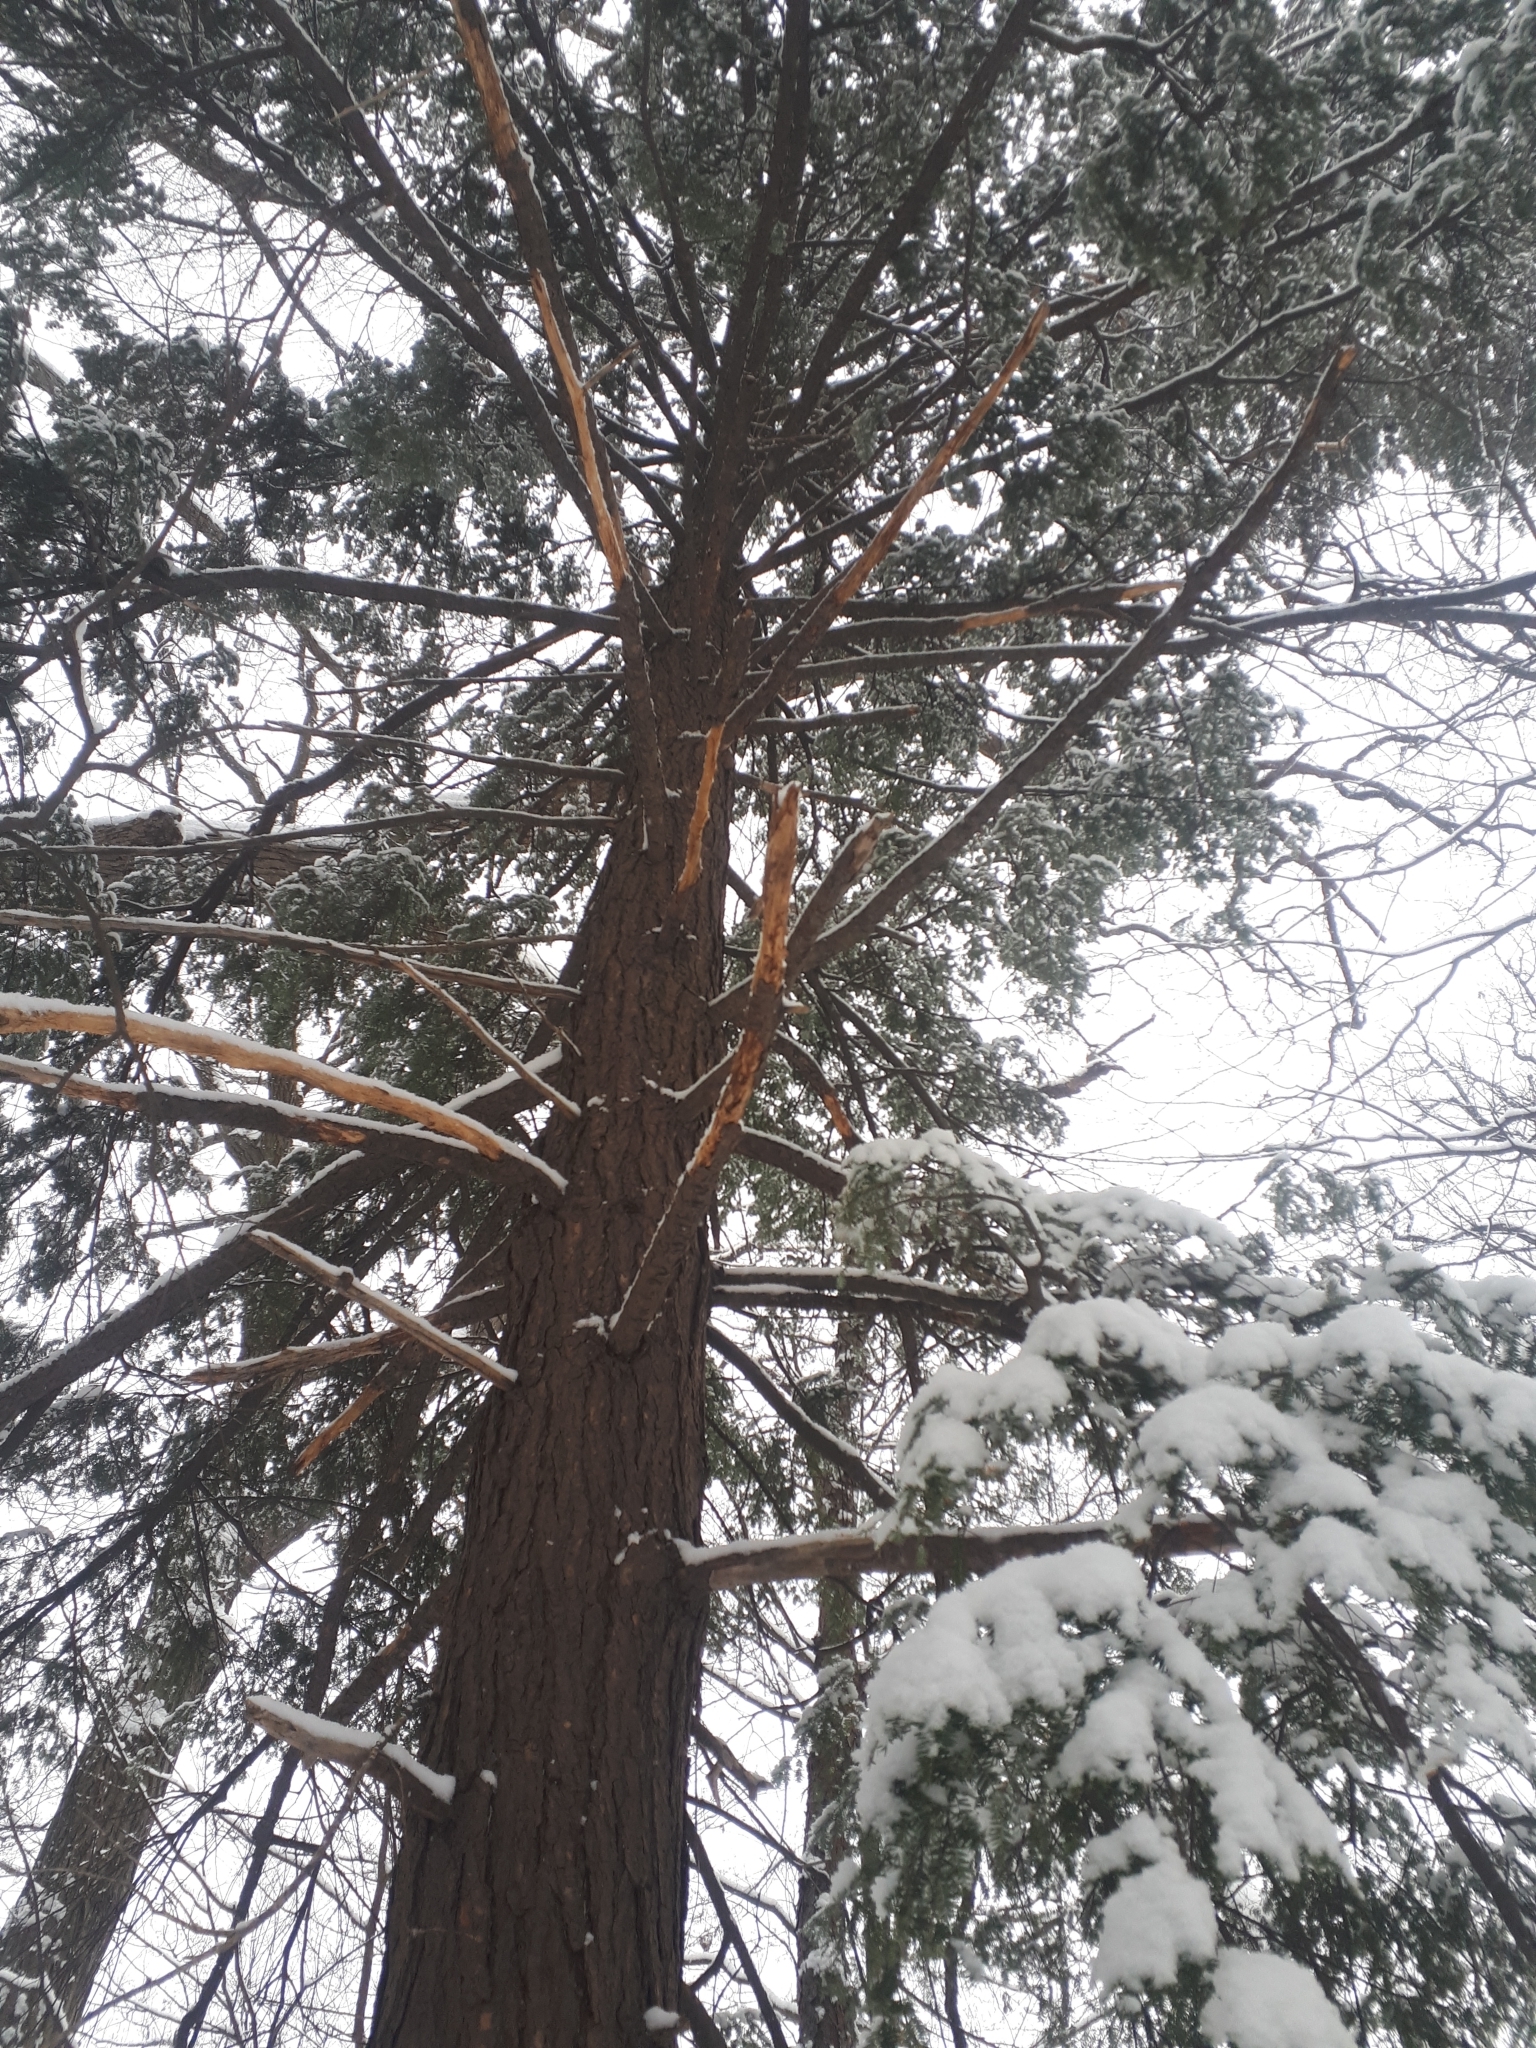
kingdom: Plantae
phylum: Tracheophyta
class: Pinopsida
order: Pinales
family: Pinaceae
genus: Tsuga
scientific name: Tsuga canadensis
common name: Eastern hemlock
